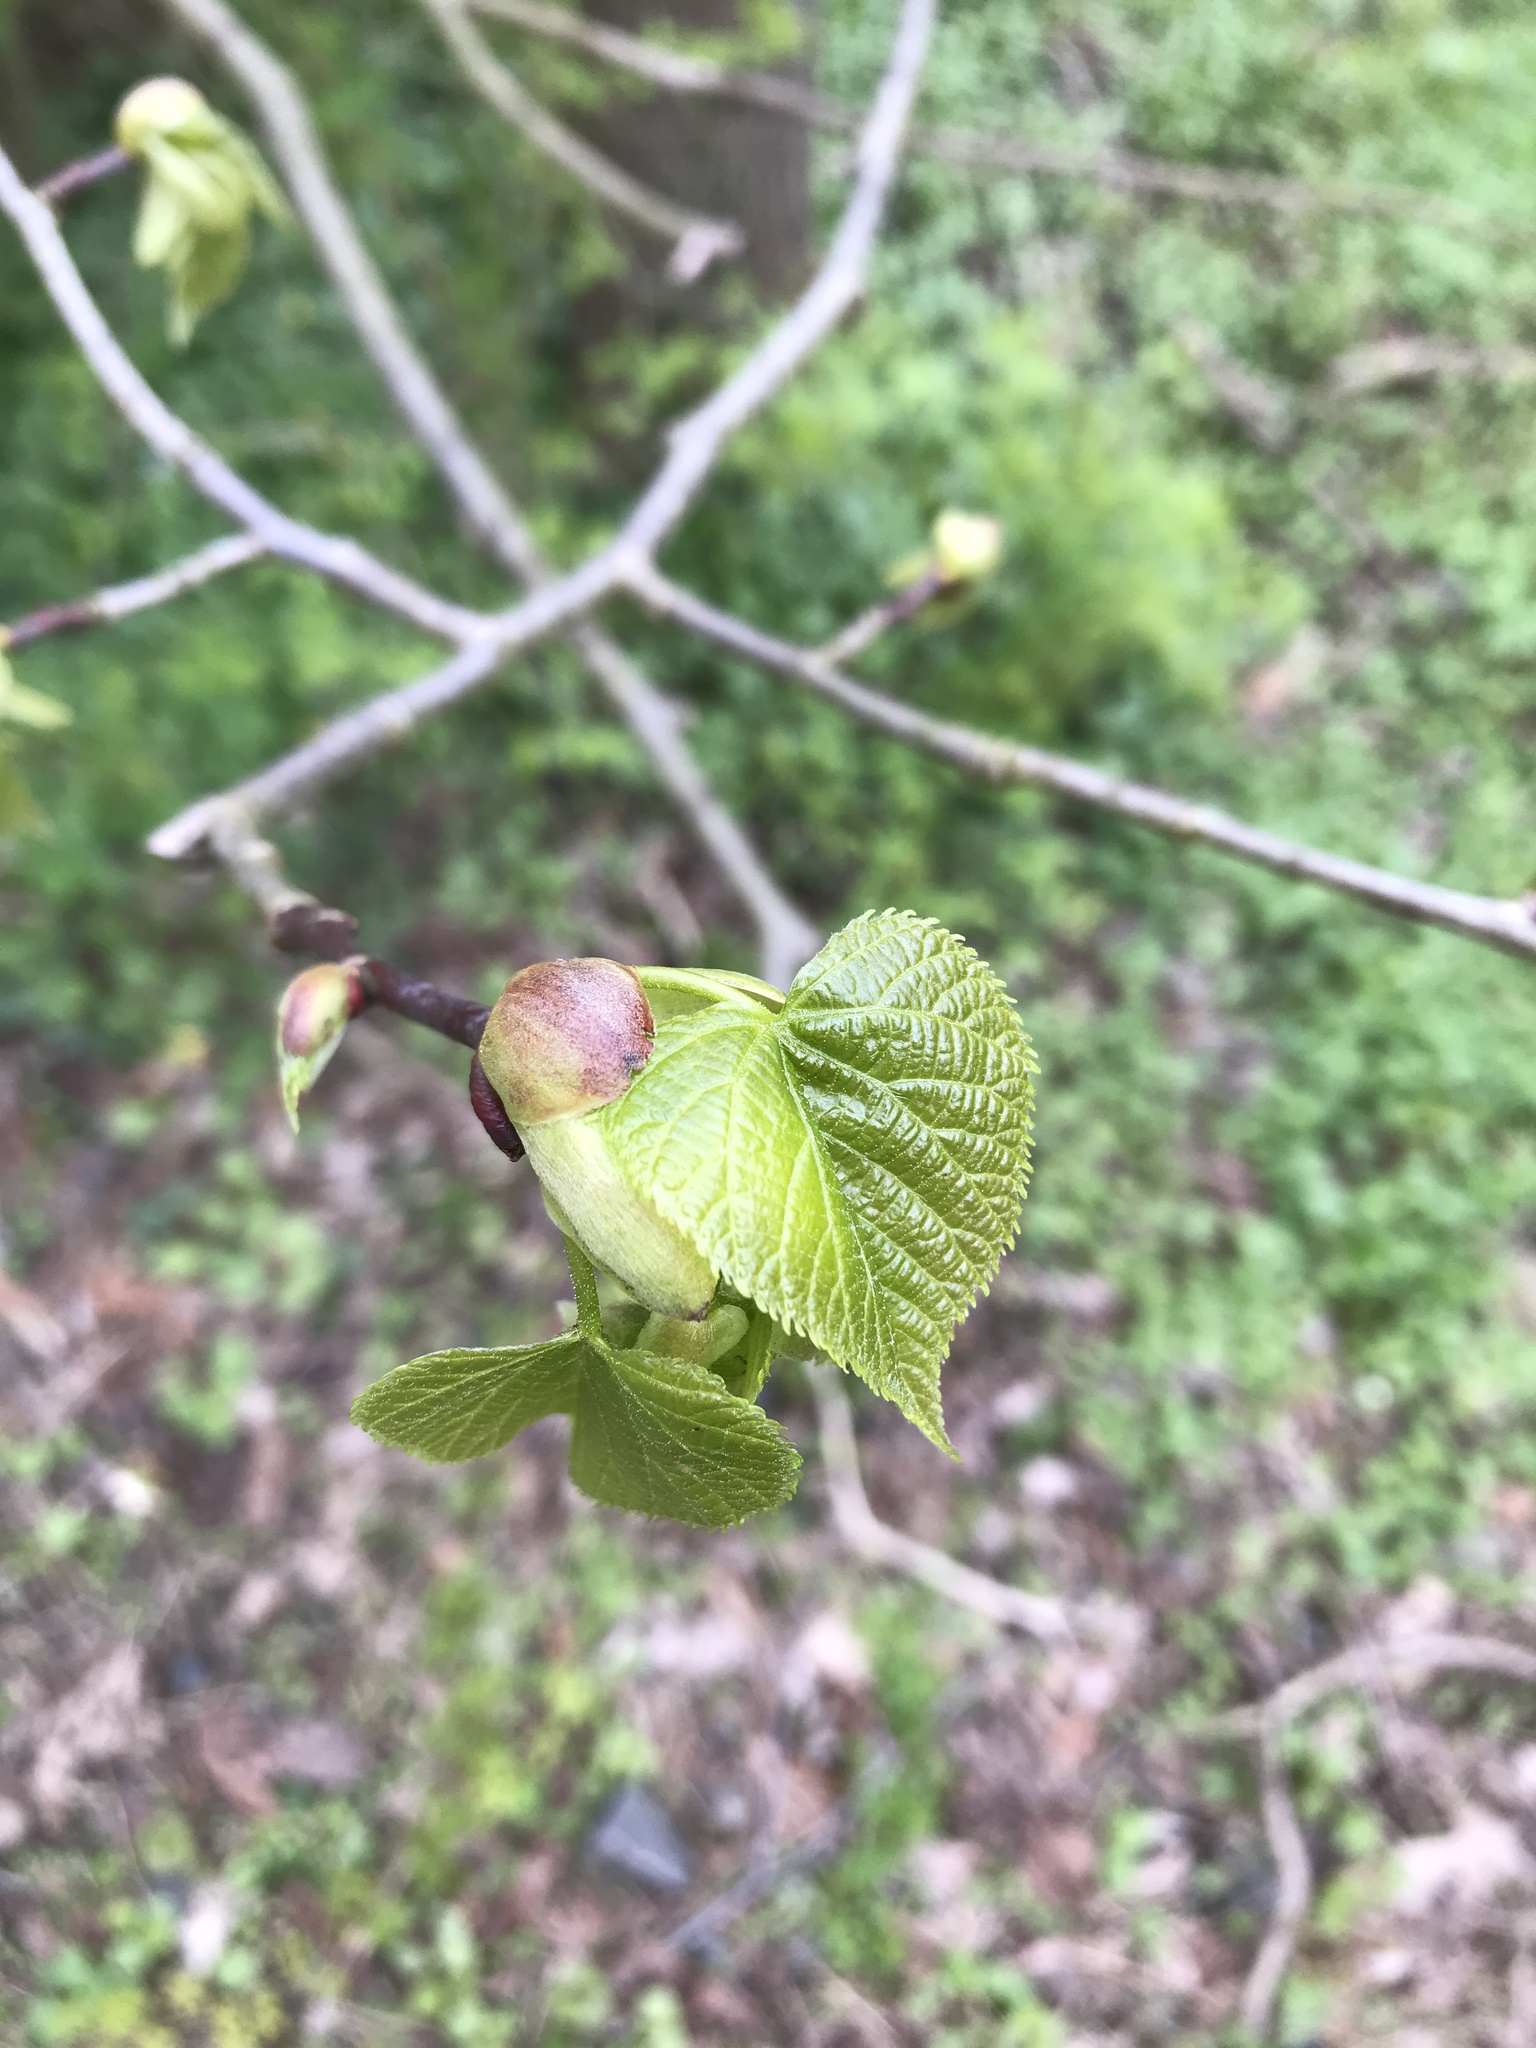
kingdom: Plantae
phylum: Tracheophyta
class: Magnoliopsida
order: Malvales
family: Malvaceae
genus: Tilia
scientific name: Tilia americana
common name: Basswood
